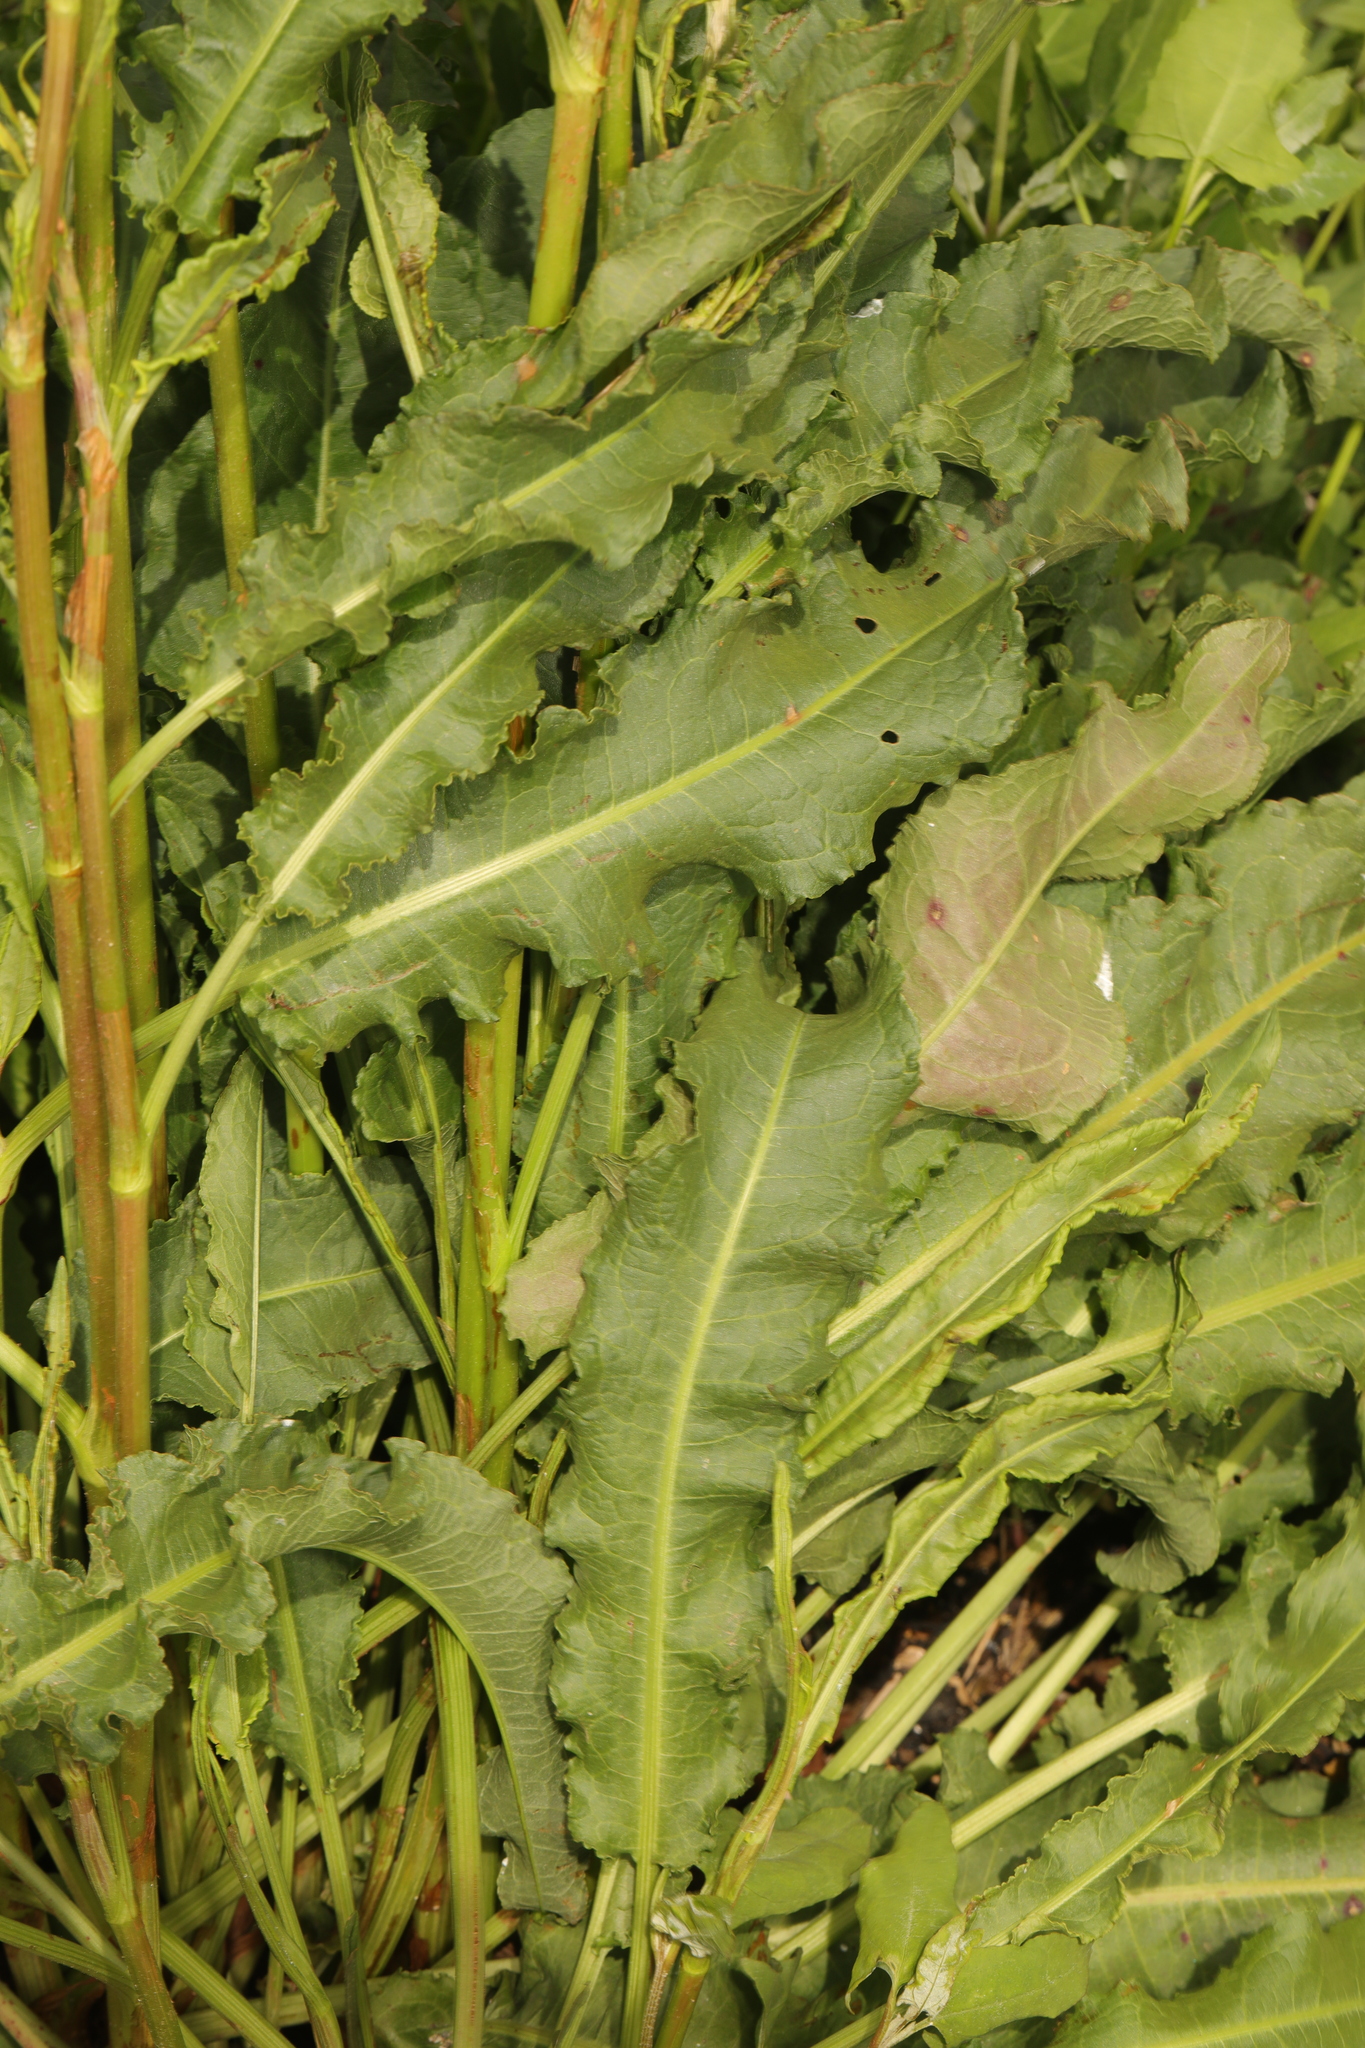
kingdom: Plantae
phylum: Tracheophyta
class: Magnoliopsida
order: Caryophyllales
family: Polygonaceae
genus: Rumex
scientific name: Rumex crispus
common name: Curled dock
